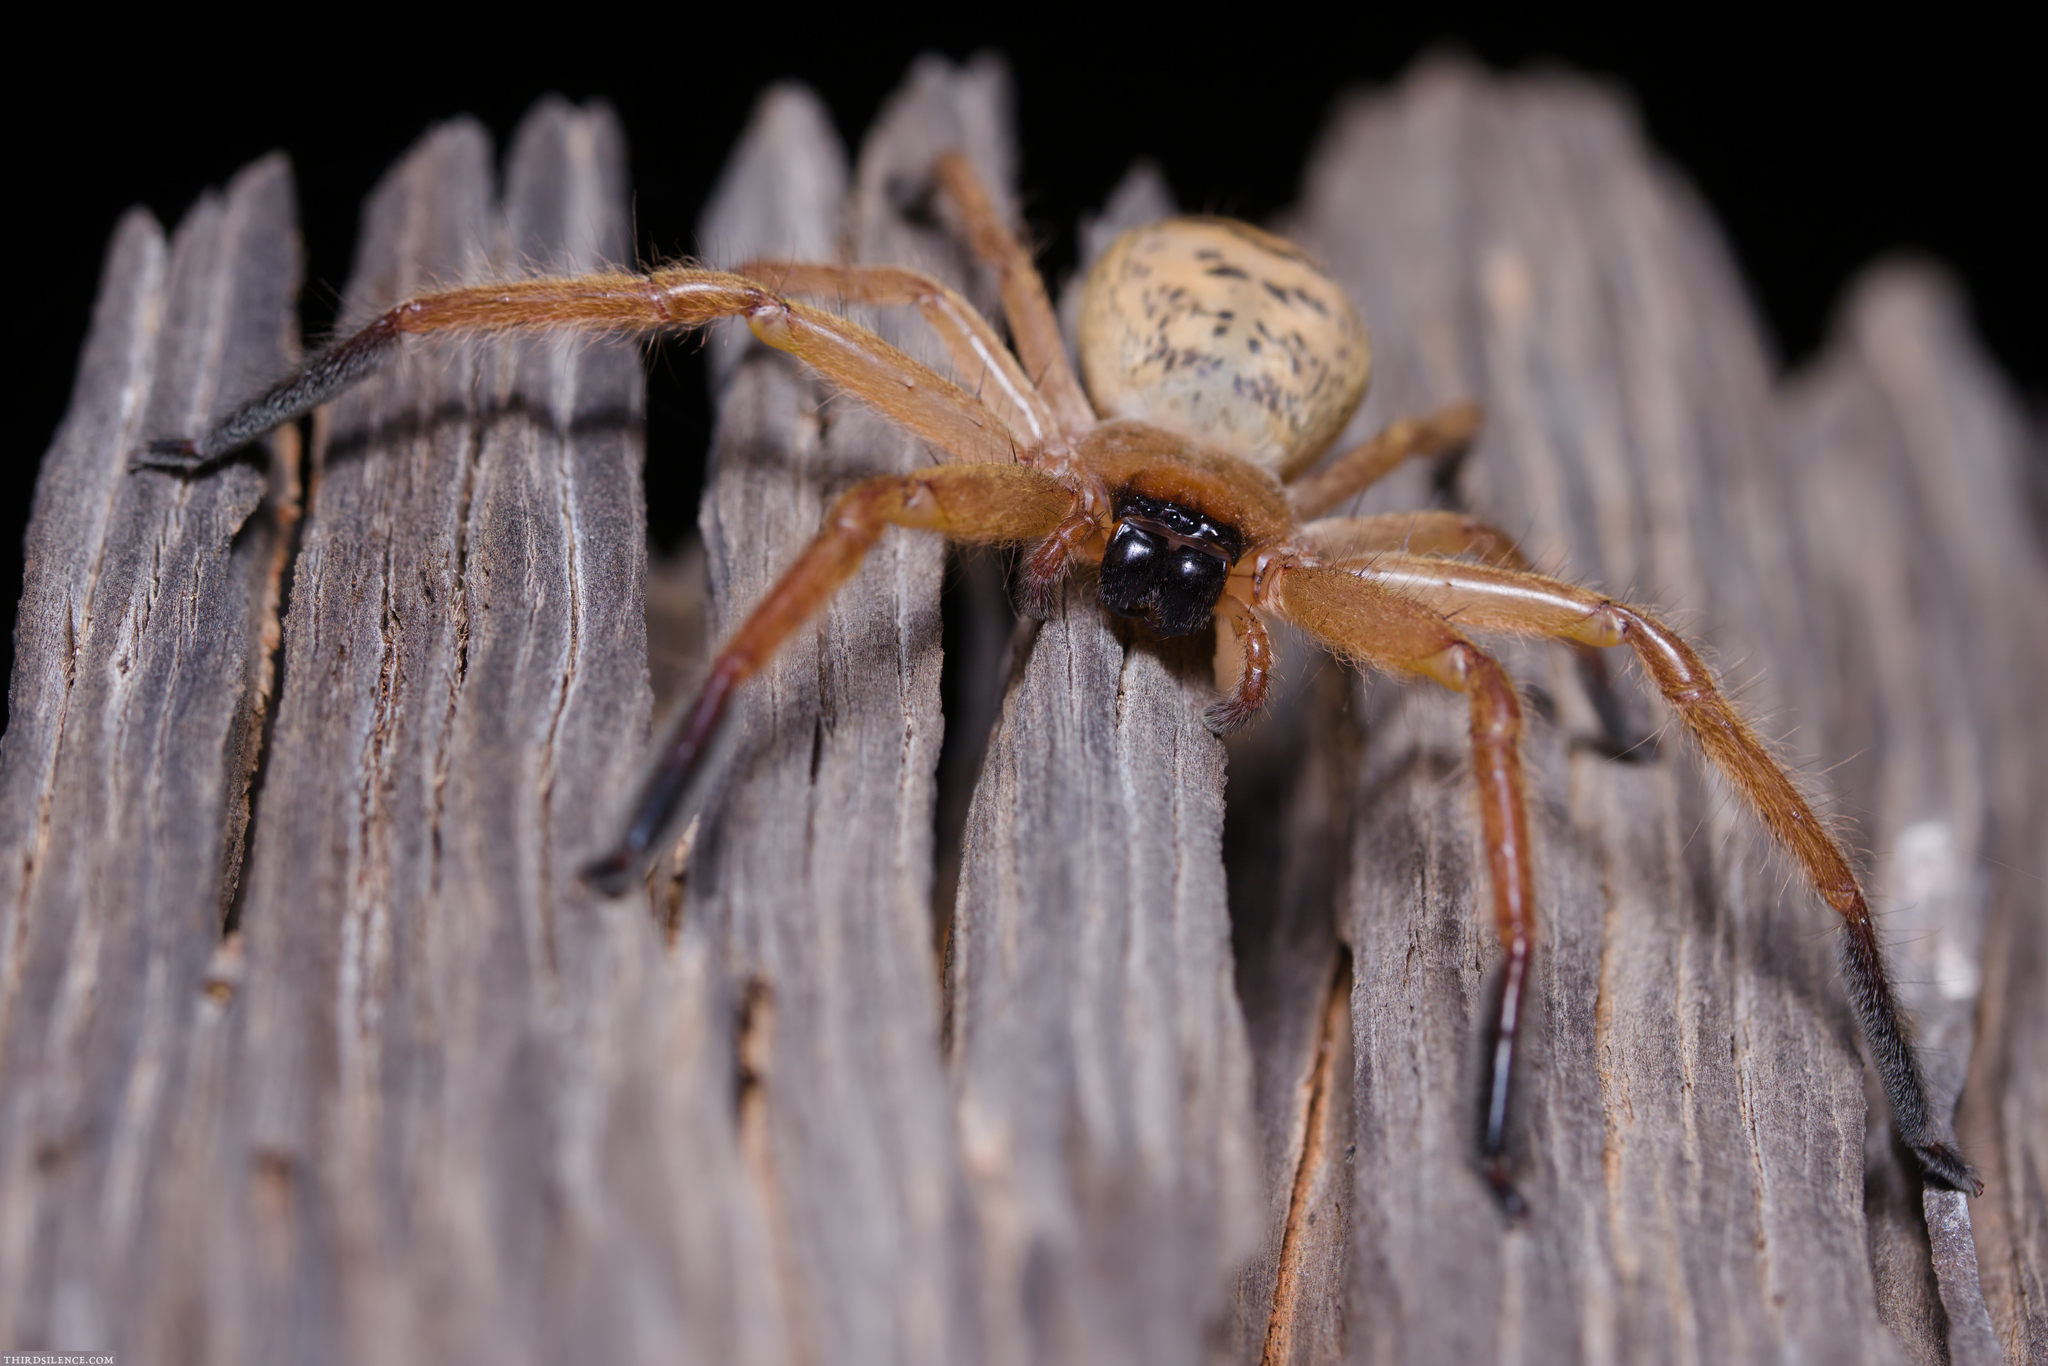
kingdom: Animalia
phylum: Arthropoda
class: Arachnida
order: Araneae
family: Sparassidae
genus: Delena
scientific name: Delena gloriosa
